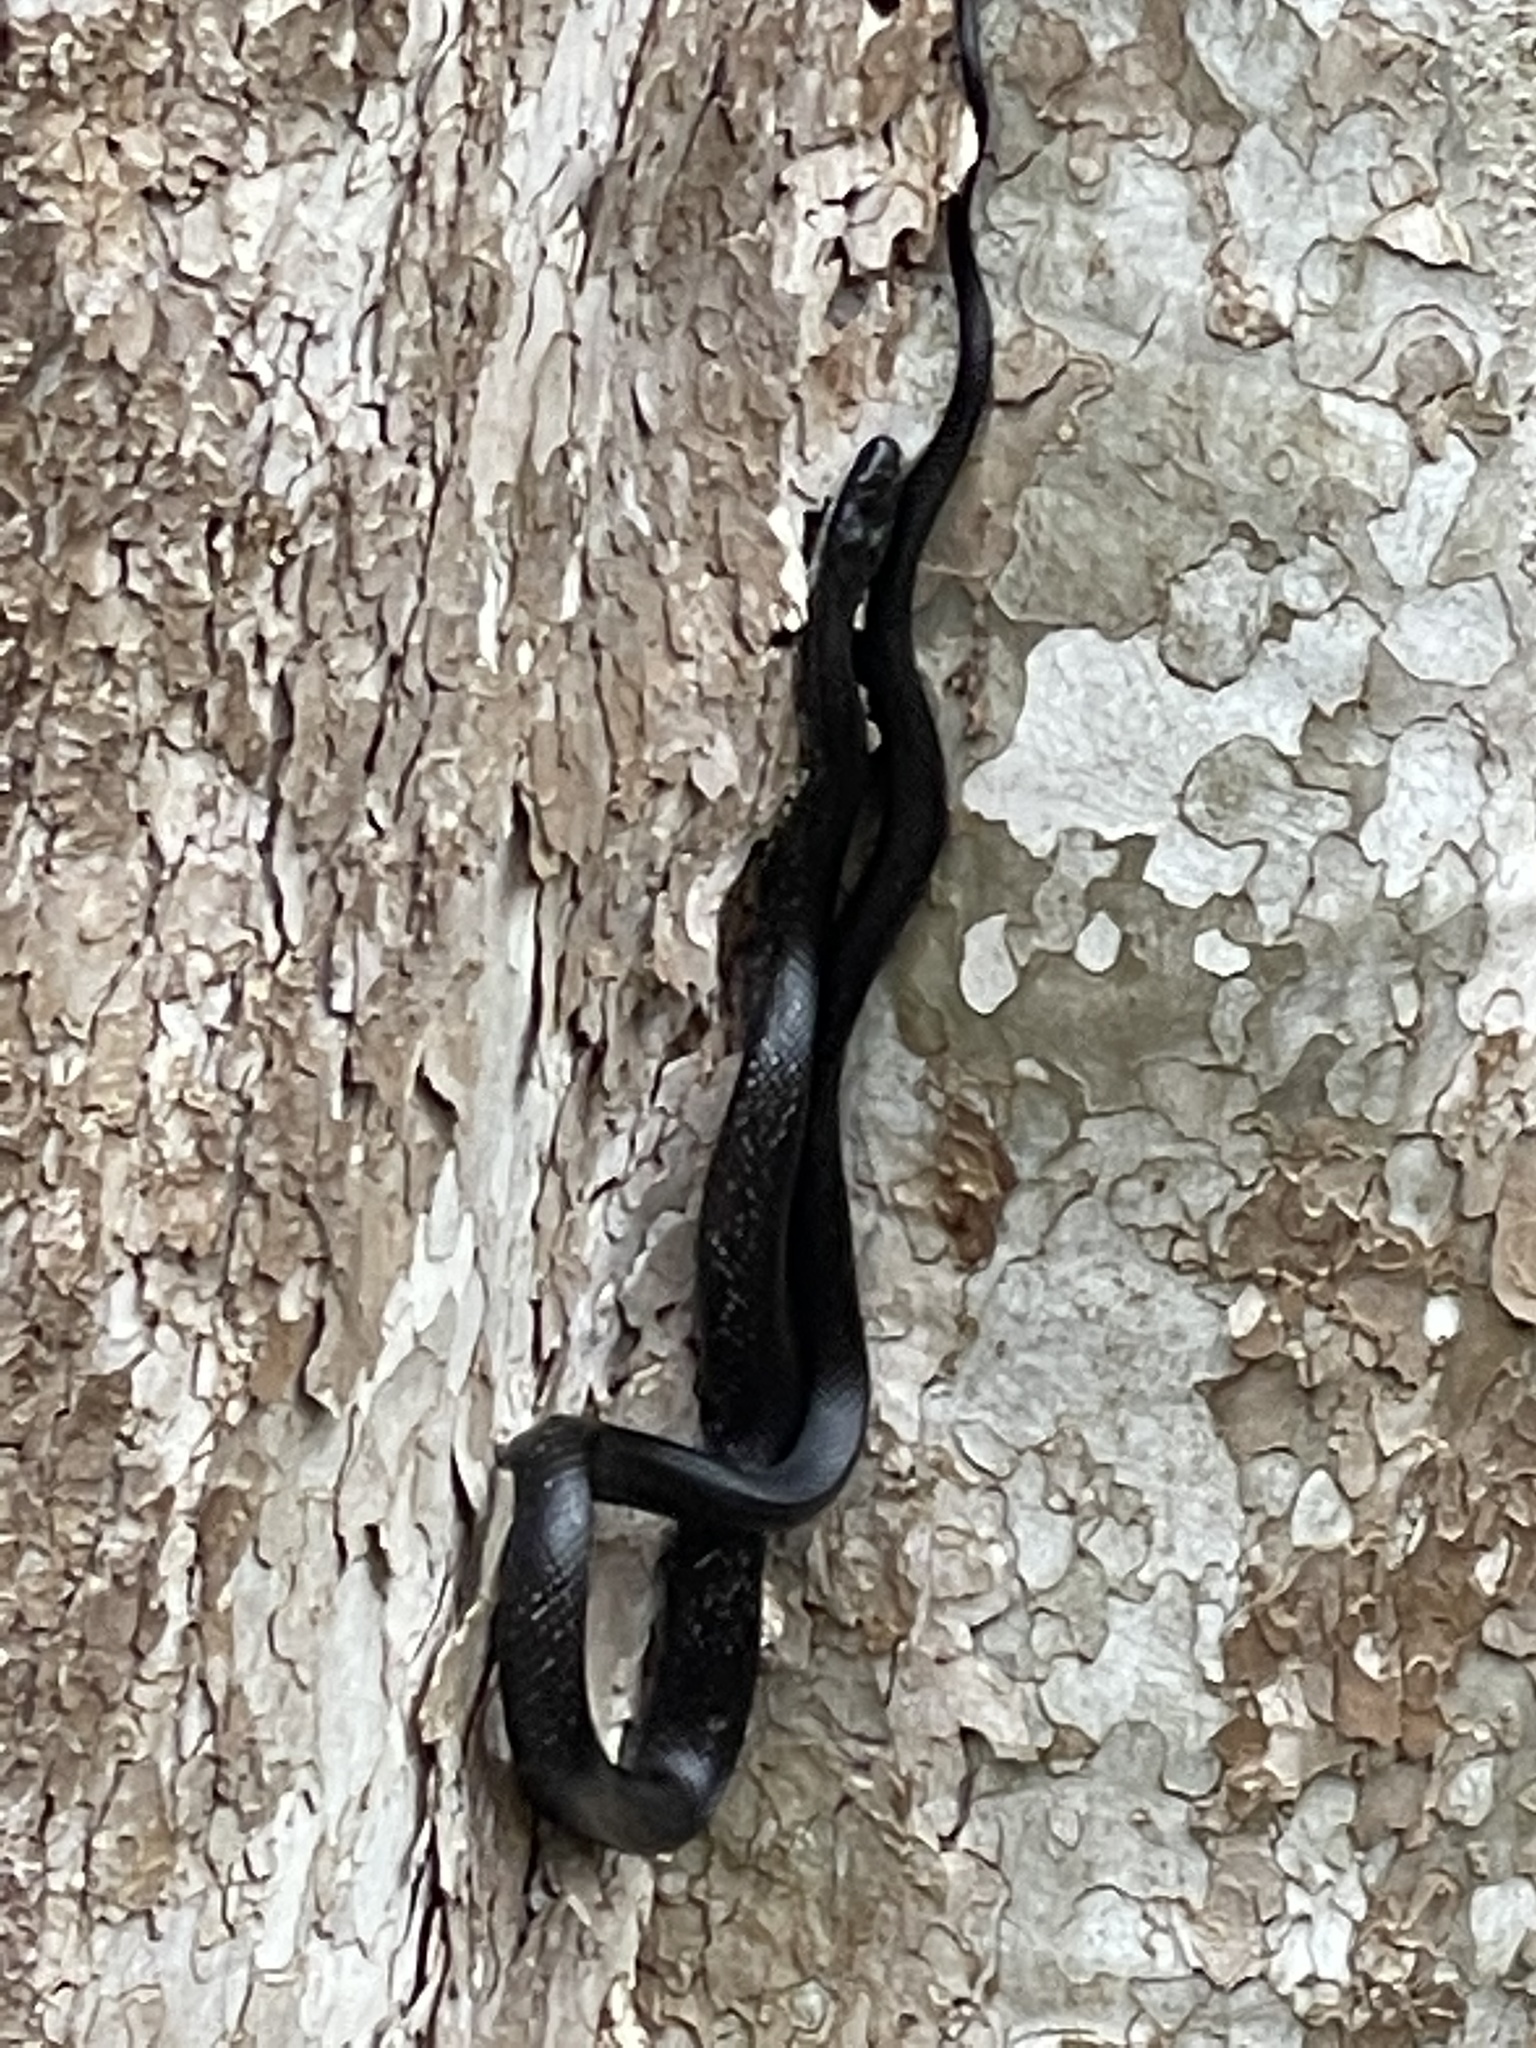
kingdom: Animalia
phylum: Chordata
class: Squamata
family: Colubridae
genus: Pantherophis
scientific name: Pantherophis alleghaniensis
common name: Eastern rat snake
